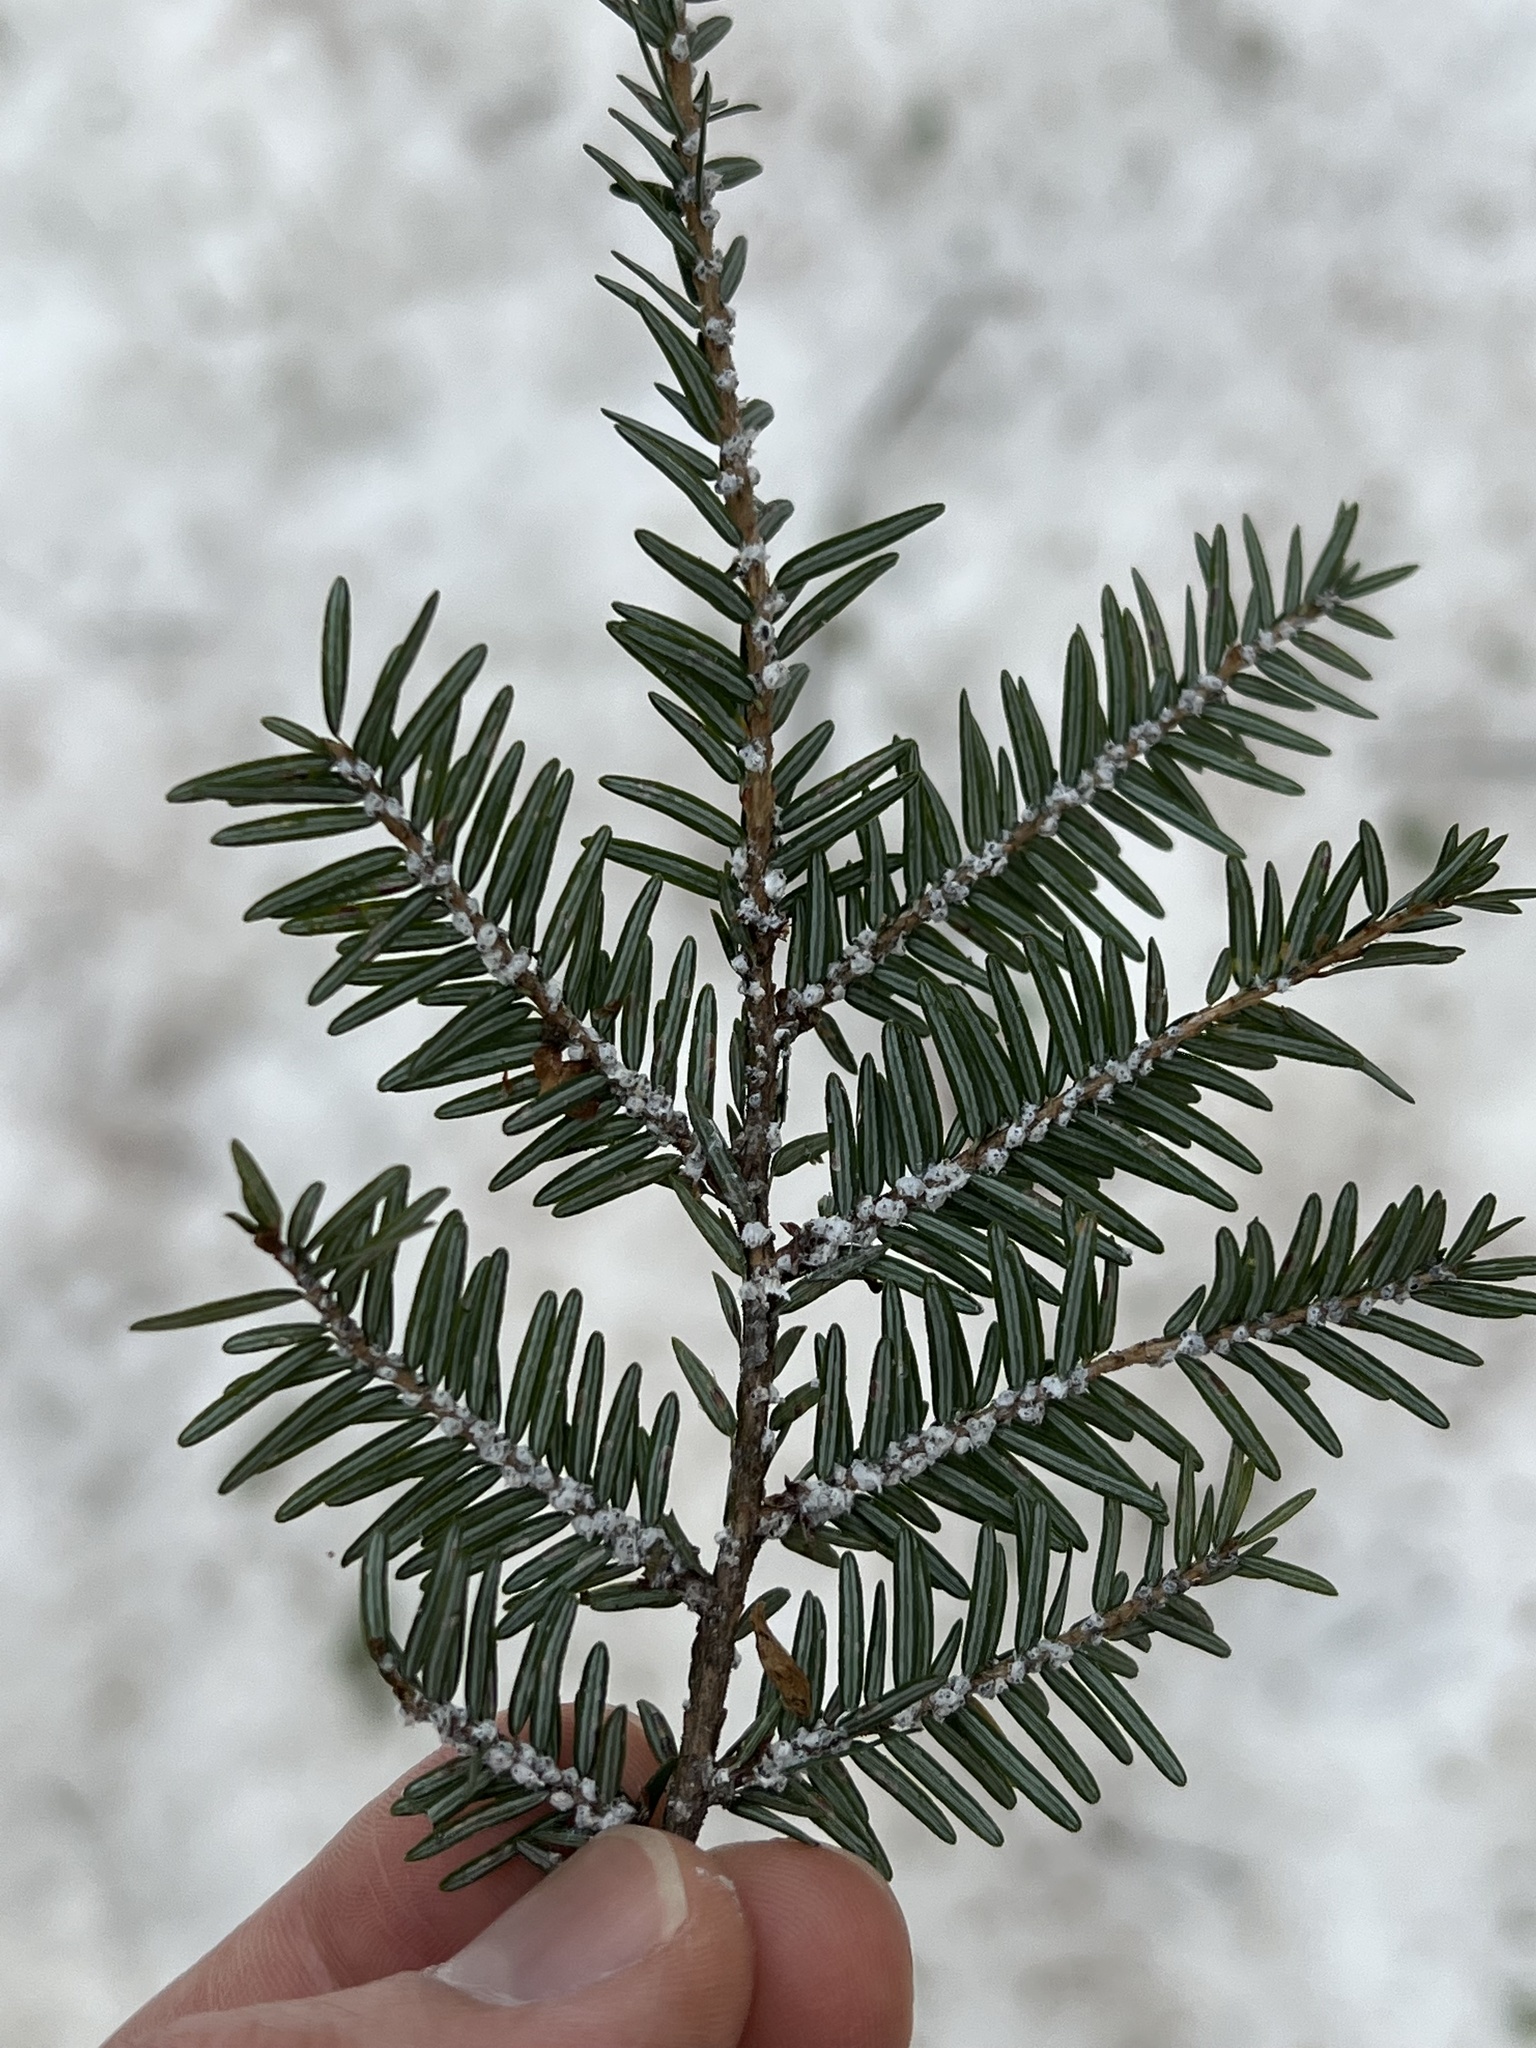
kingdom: Animalia
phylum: Arthropoda
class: Insecta
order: Hemiptera
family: Adelgidae
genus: Adelges
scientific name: Adelges tsugae
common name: Hemlock woolly adelgid
